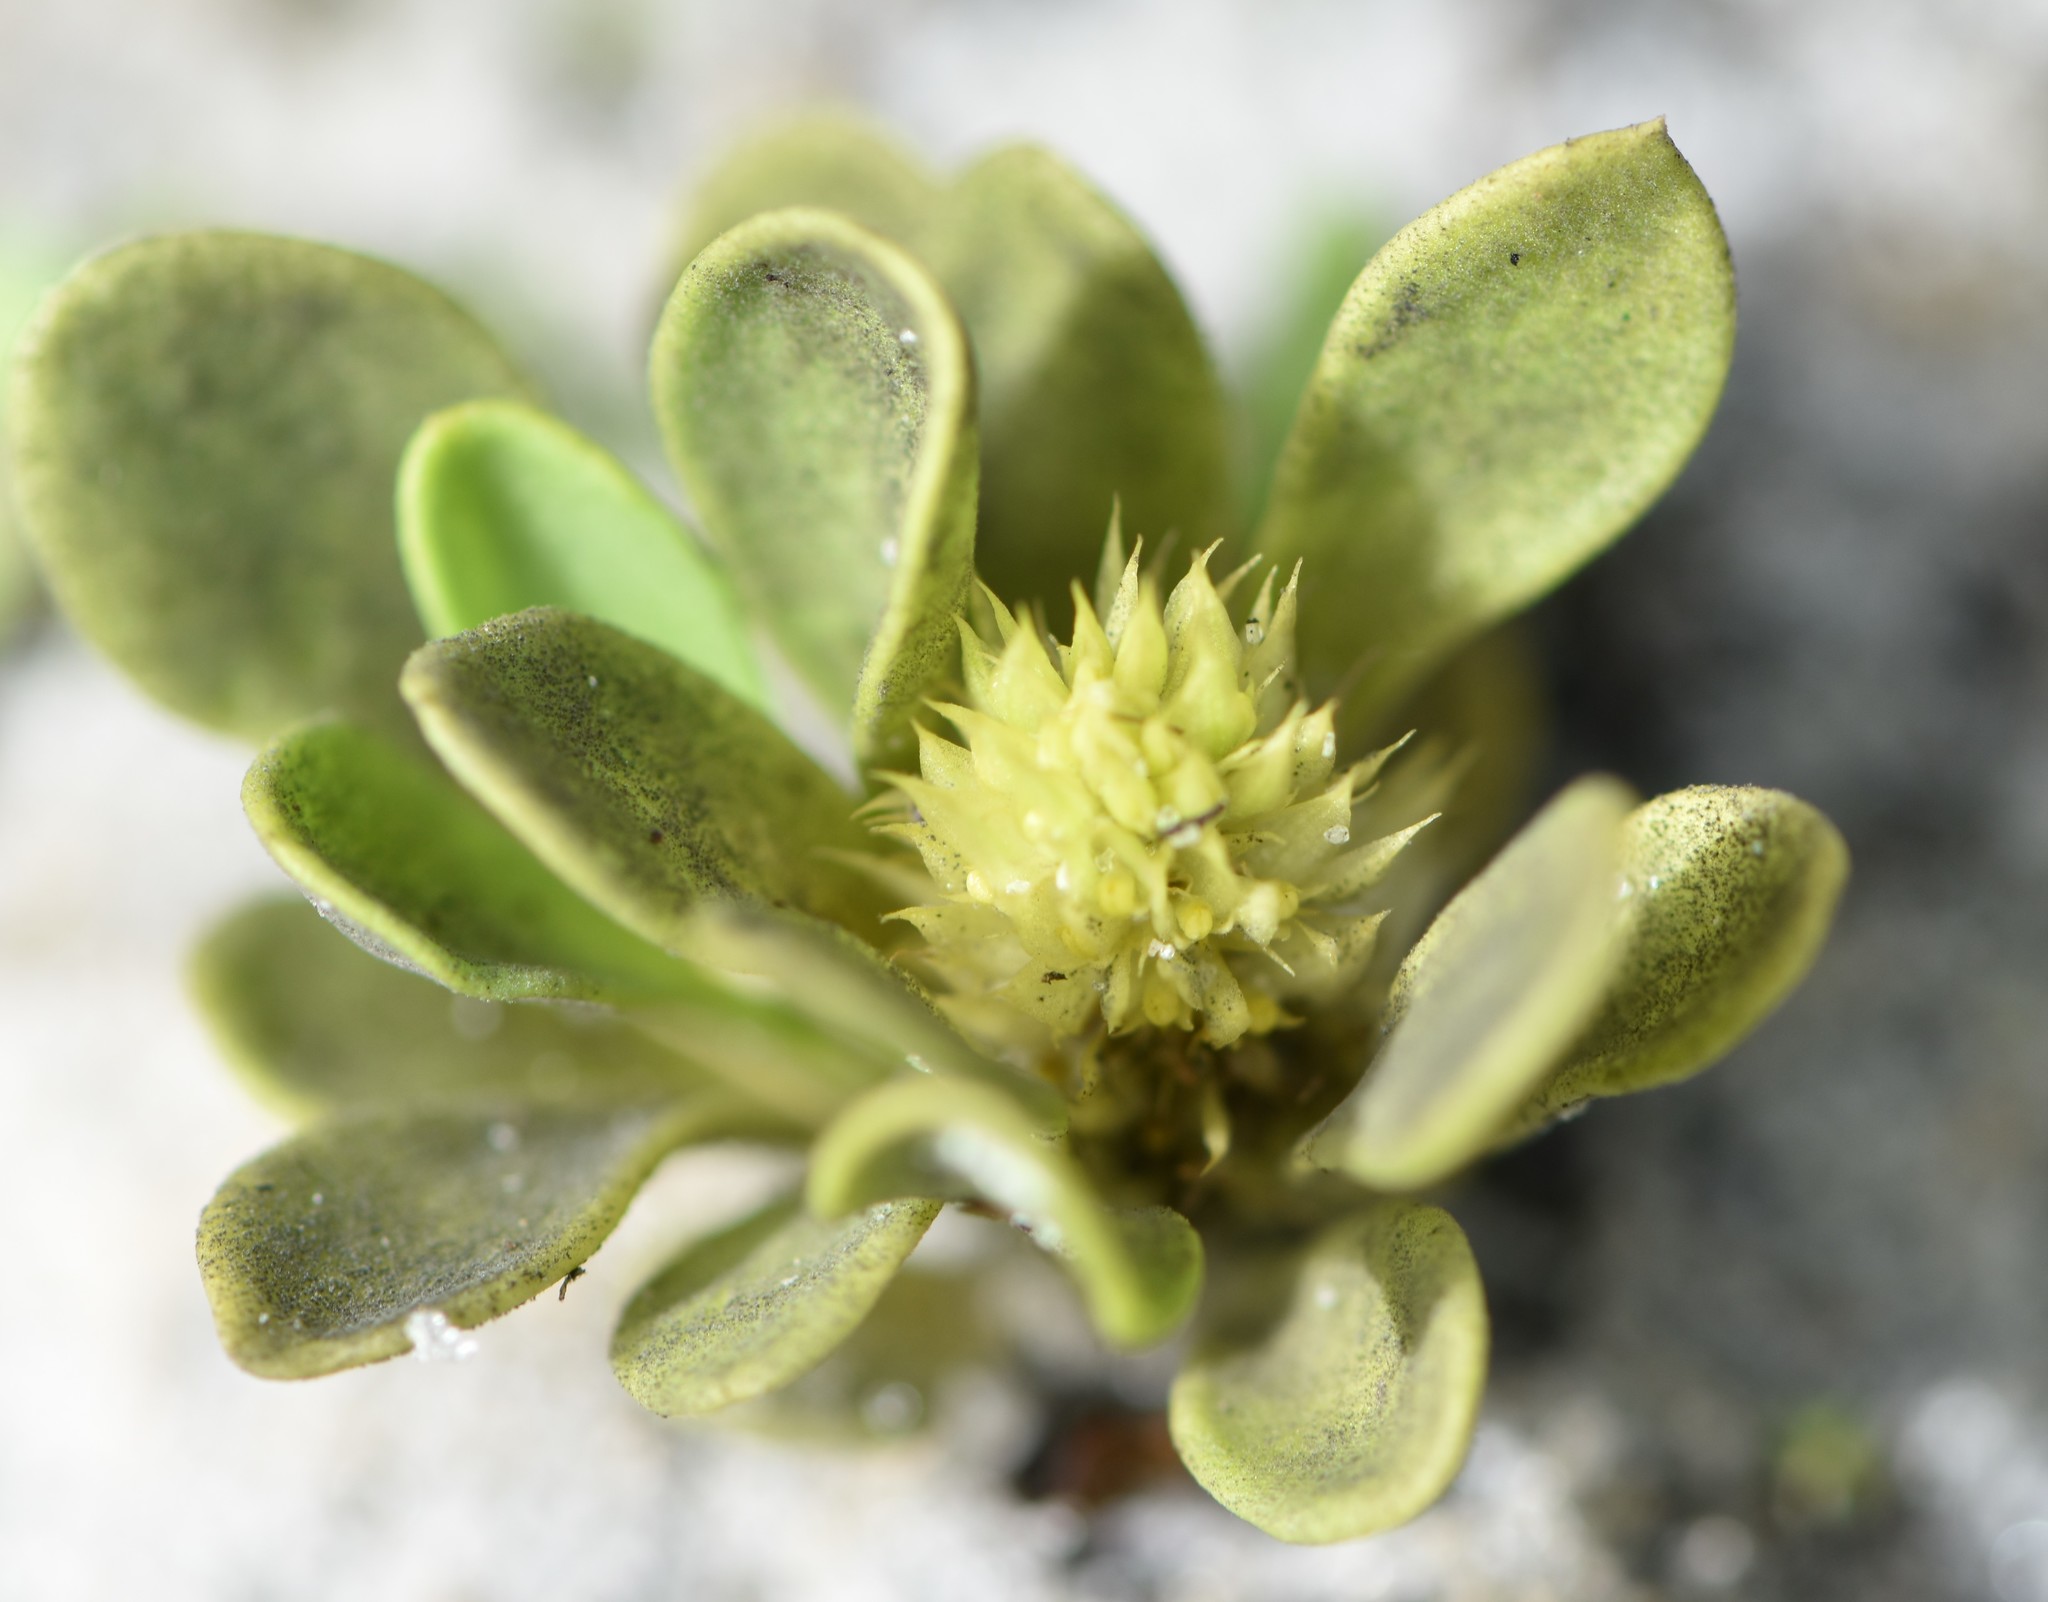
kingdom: Plantae
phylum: Tracheophyta
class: Magnoliopsida
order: Fabales
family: Polygalaceae
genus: Polygala
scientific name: Polygala nana
